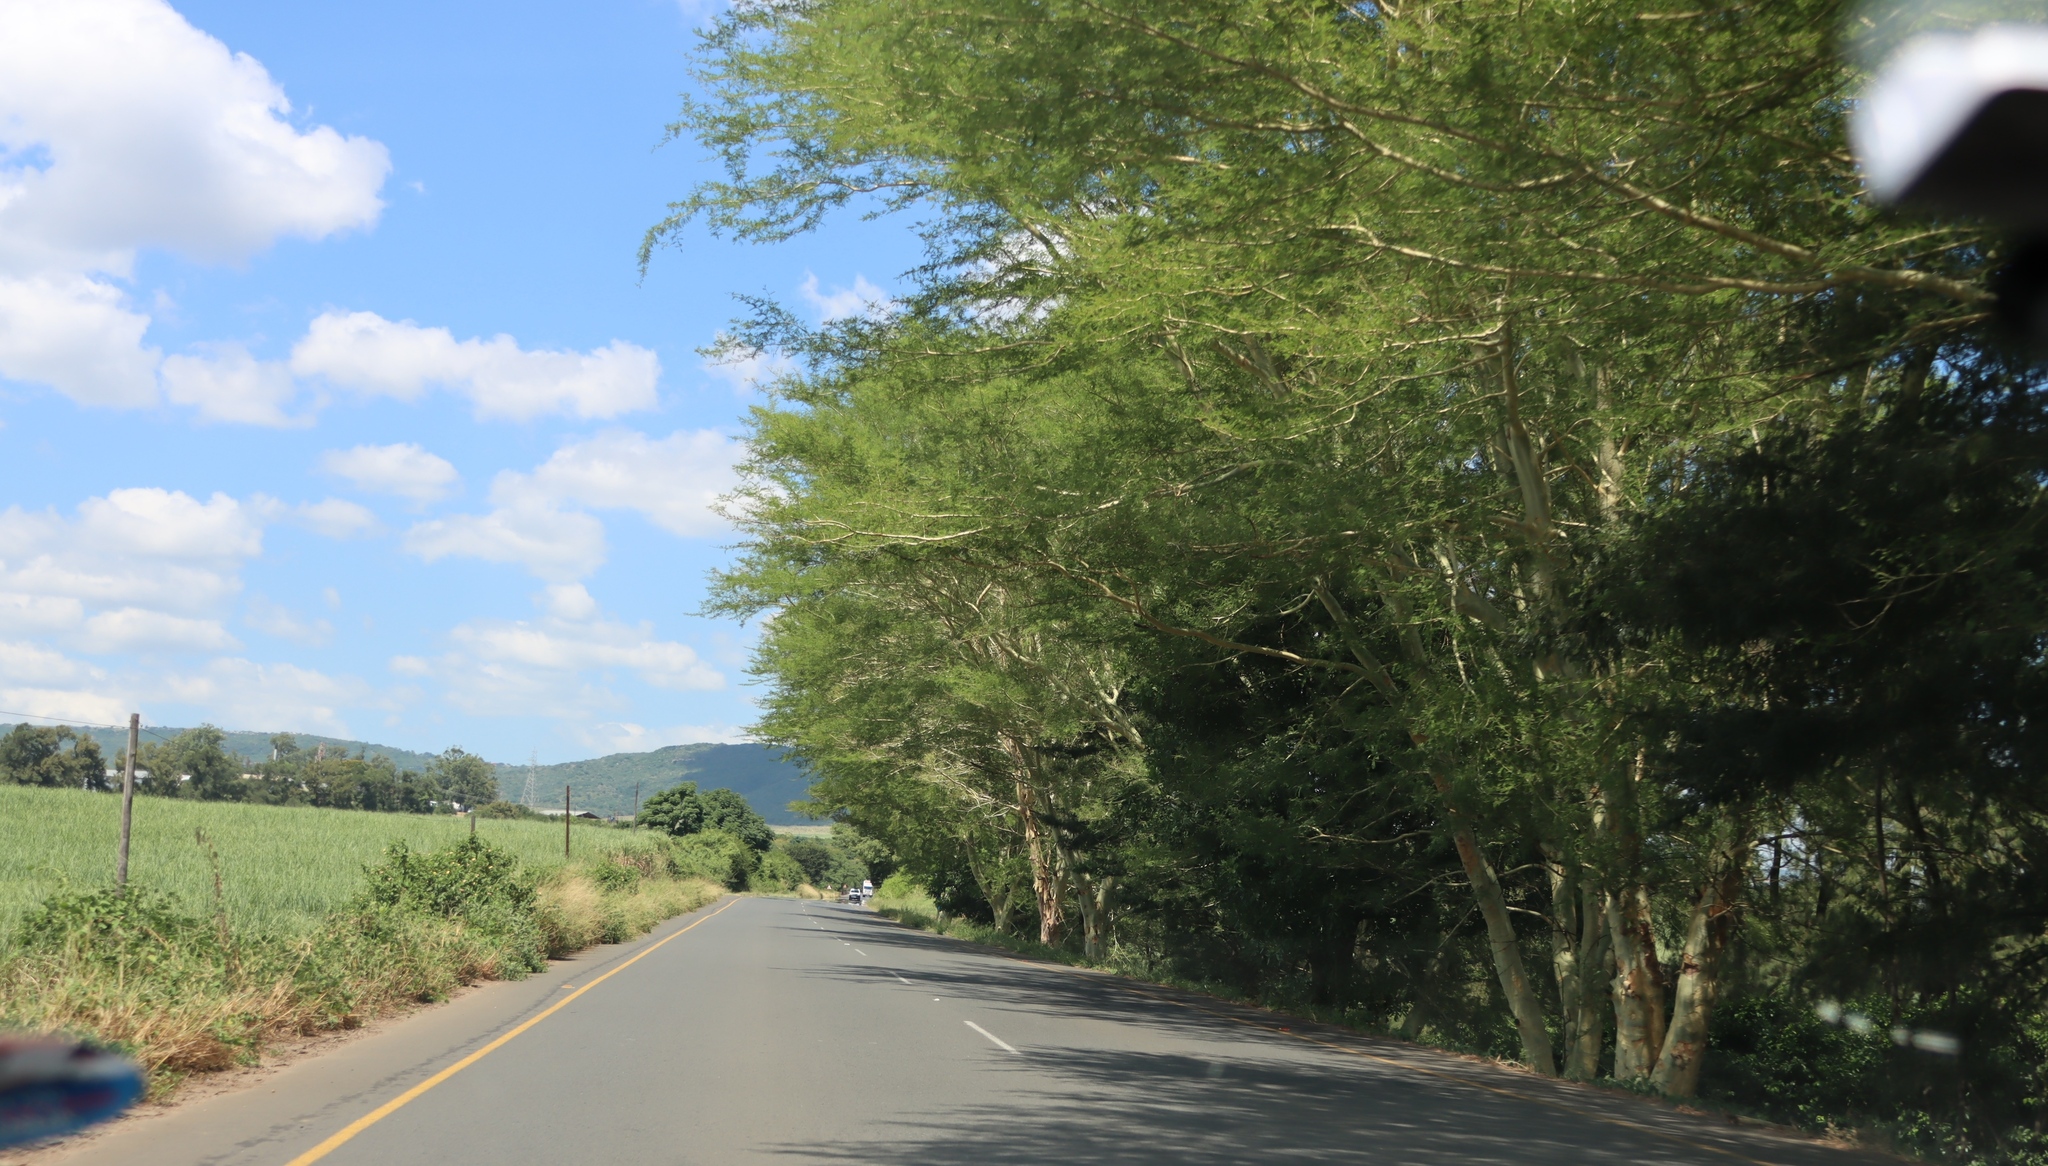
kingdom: Plantae
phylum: Tracheophyta
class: Magnoliopsida
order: Fabales
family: Fabaceae
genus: Vachellia
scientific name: Vachellia xanthophloea
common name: Fever tree
